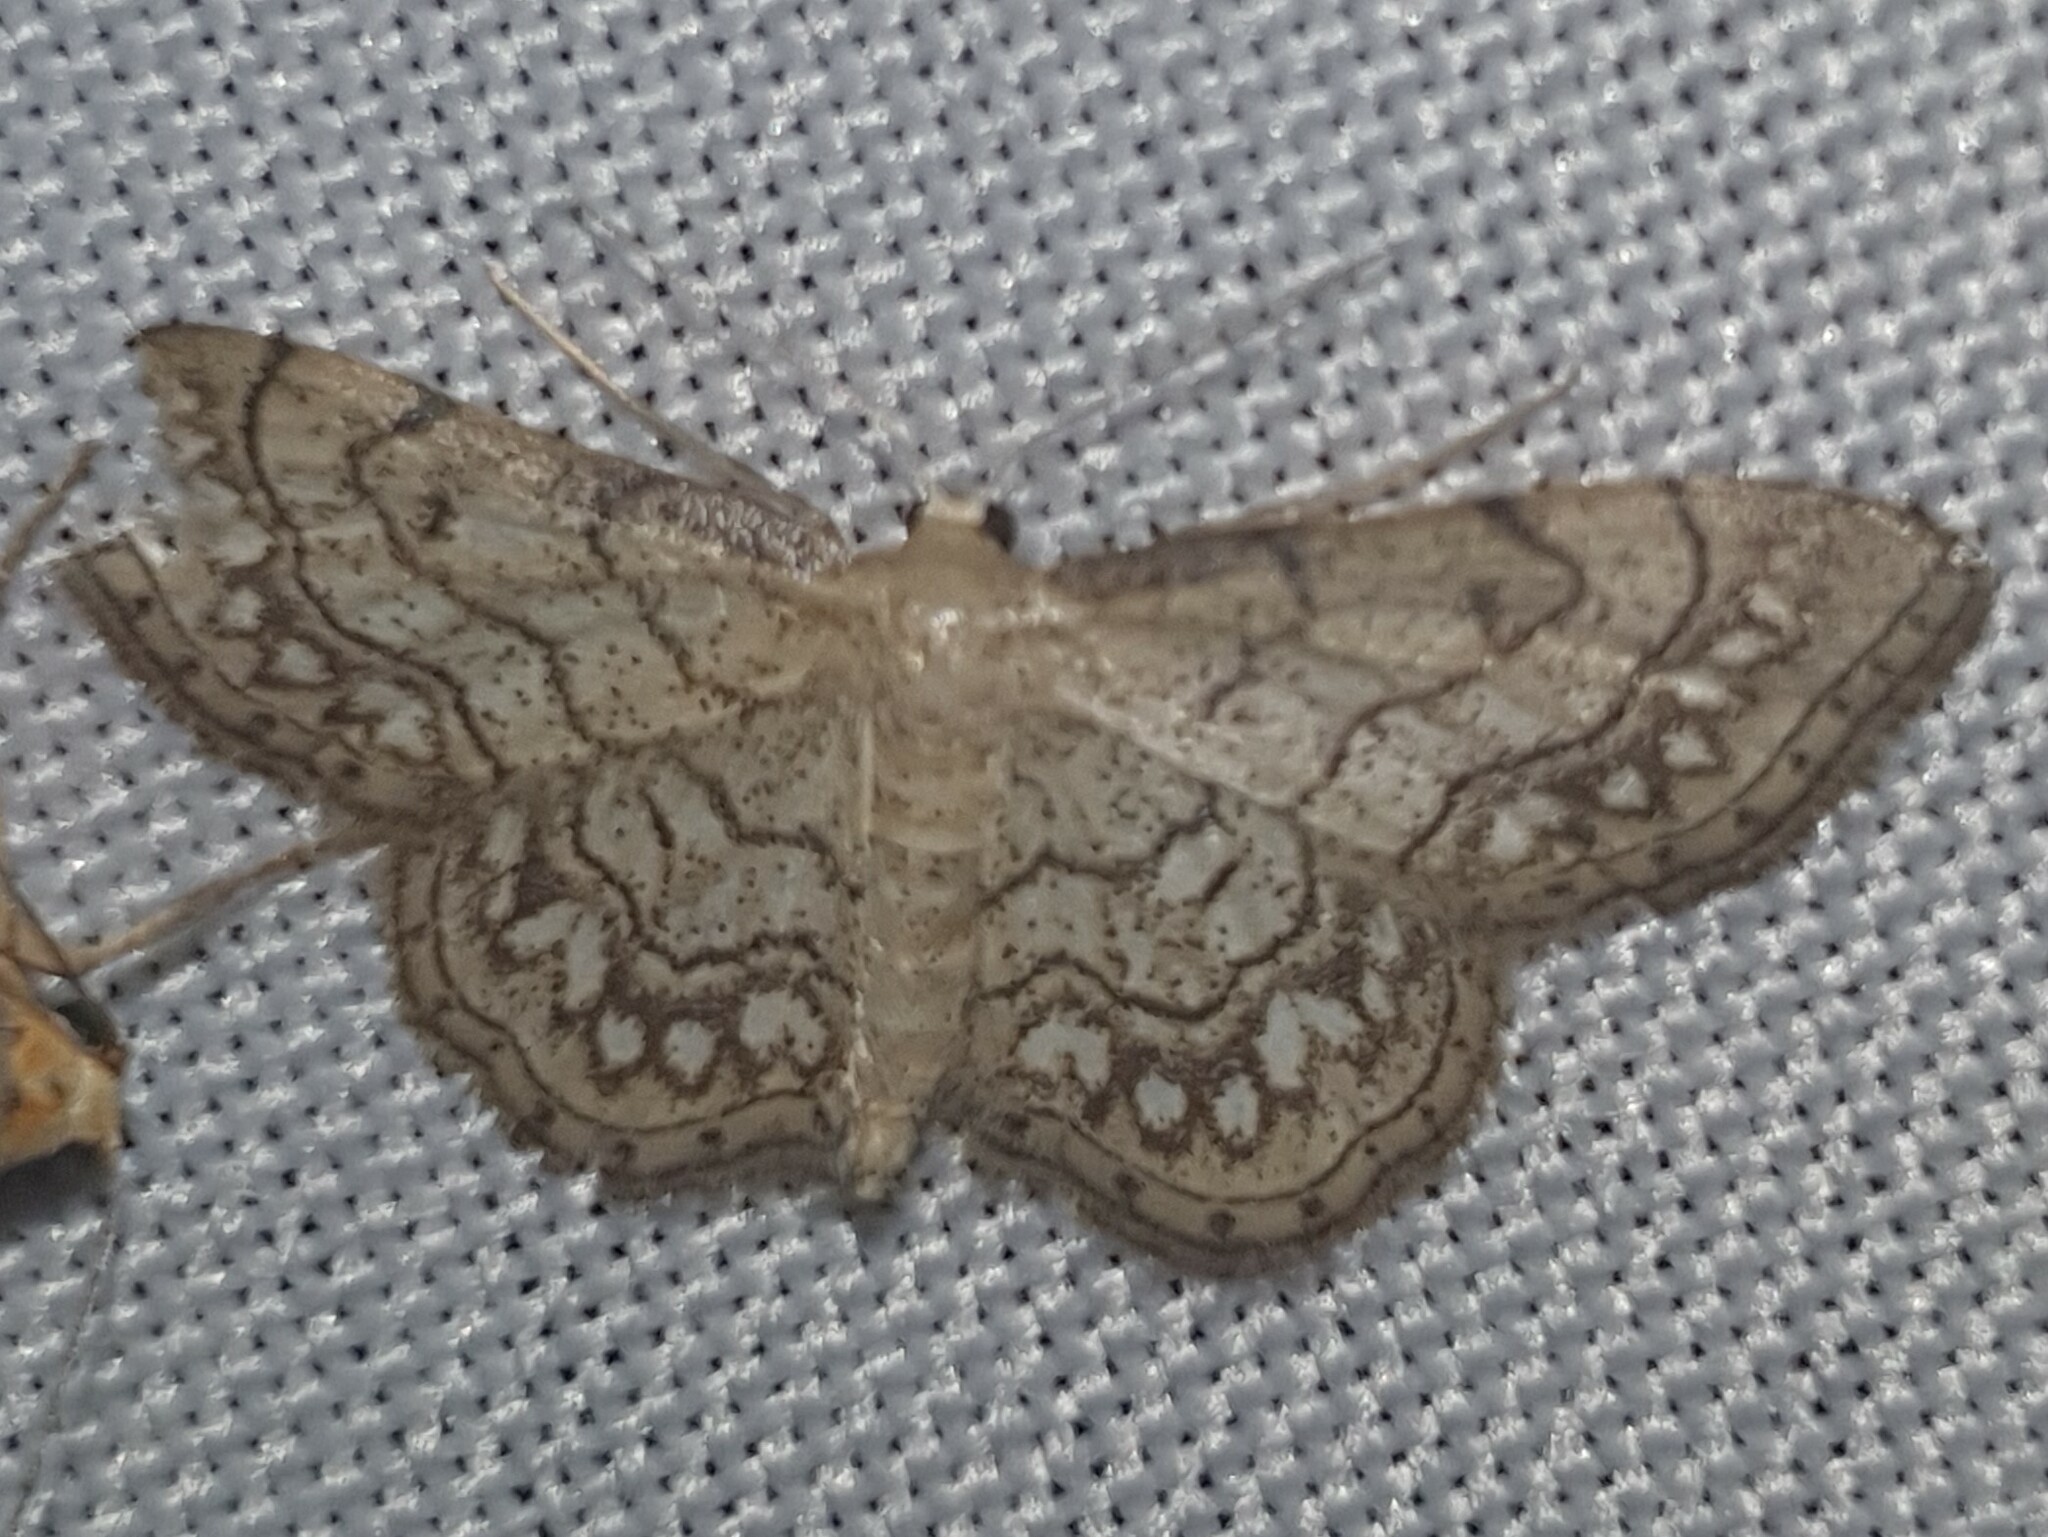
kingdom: Animalia
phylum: Arthropoda
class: Insecta
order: Lepidoptera
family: Geometridae
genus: Idaea
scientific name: Idaea moniliata
